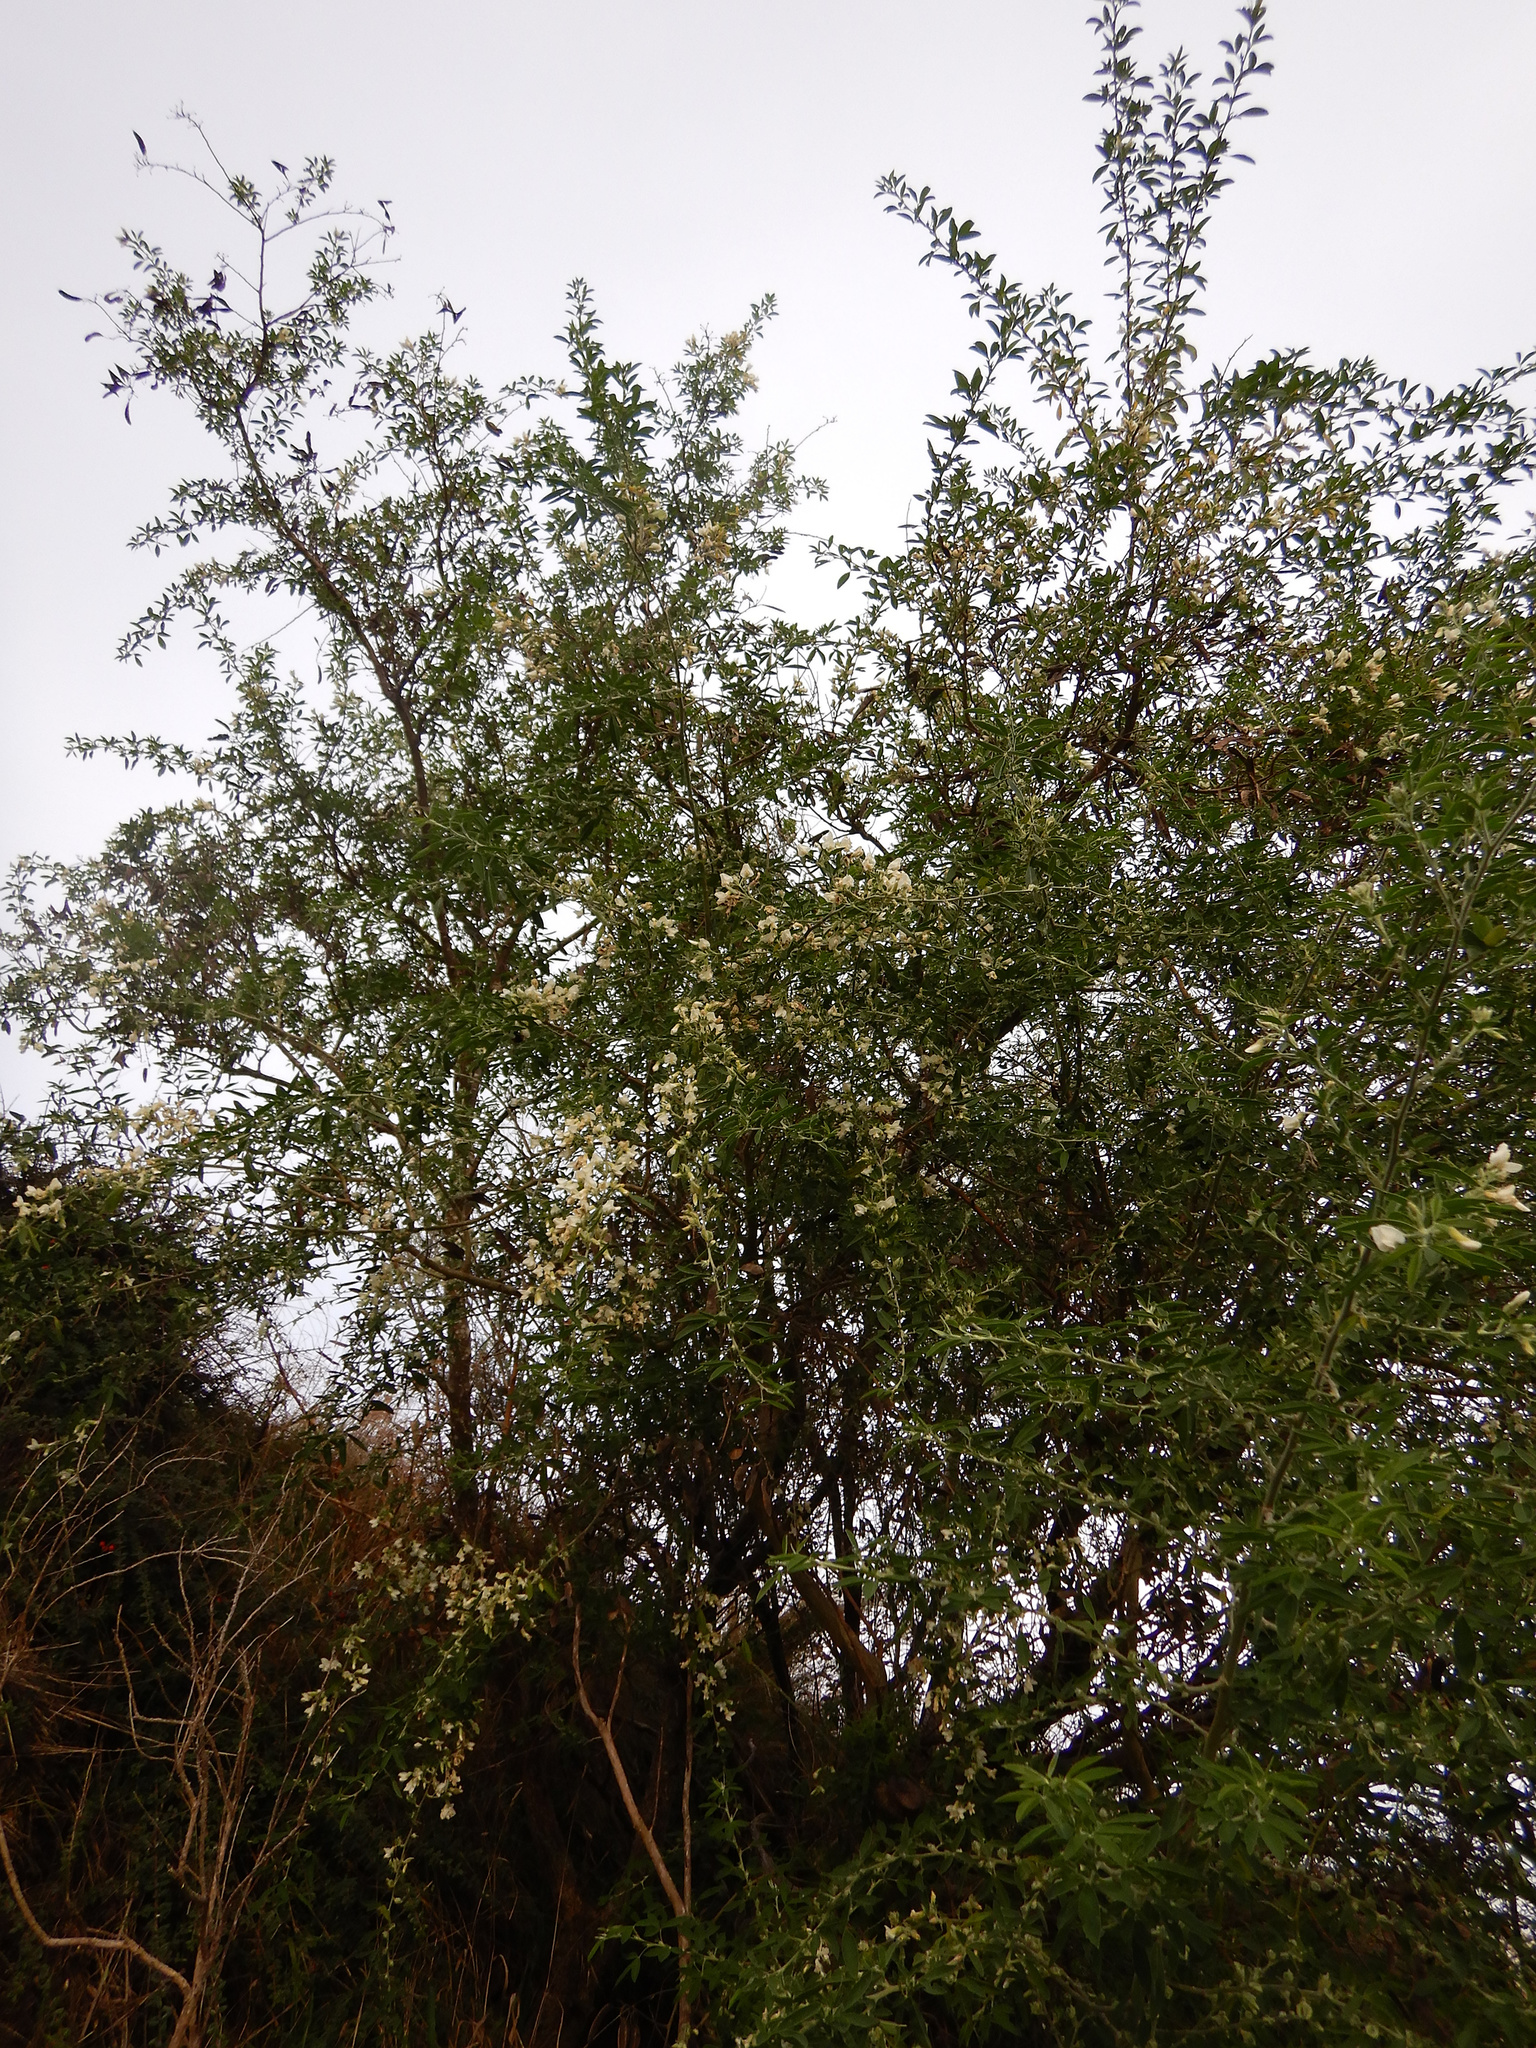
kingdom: Plantae
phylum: Tracheophyta
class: Magnoliopsida
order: Fabales
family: Fabaceae
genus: Chamaecytisus
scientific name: Chamaecytisus prolifer
